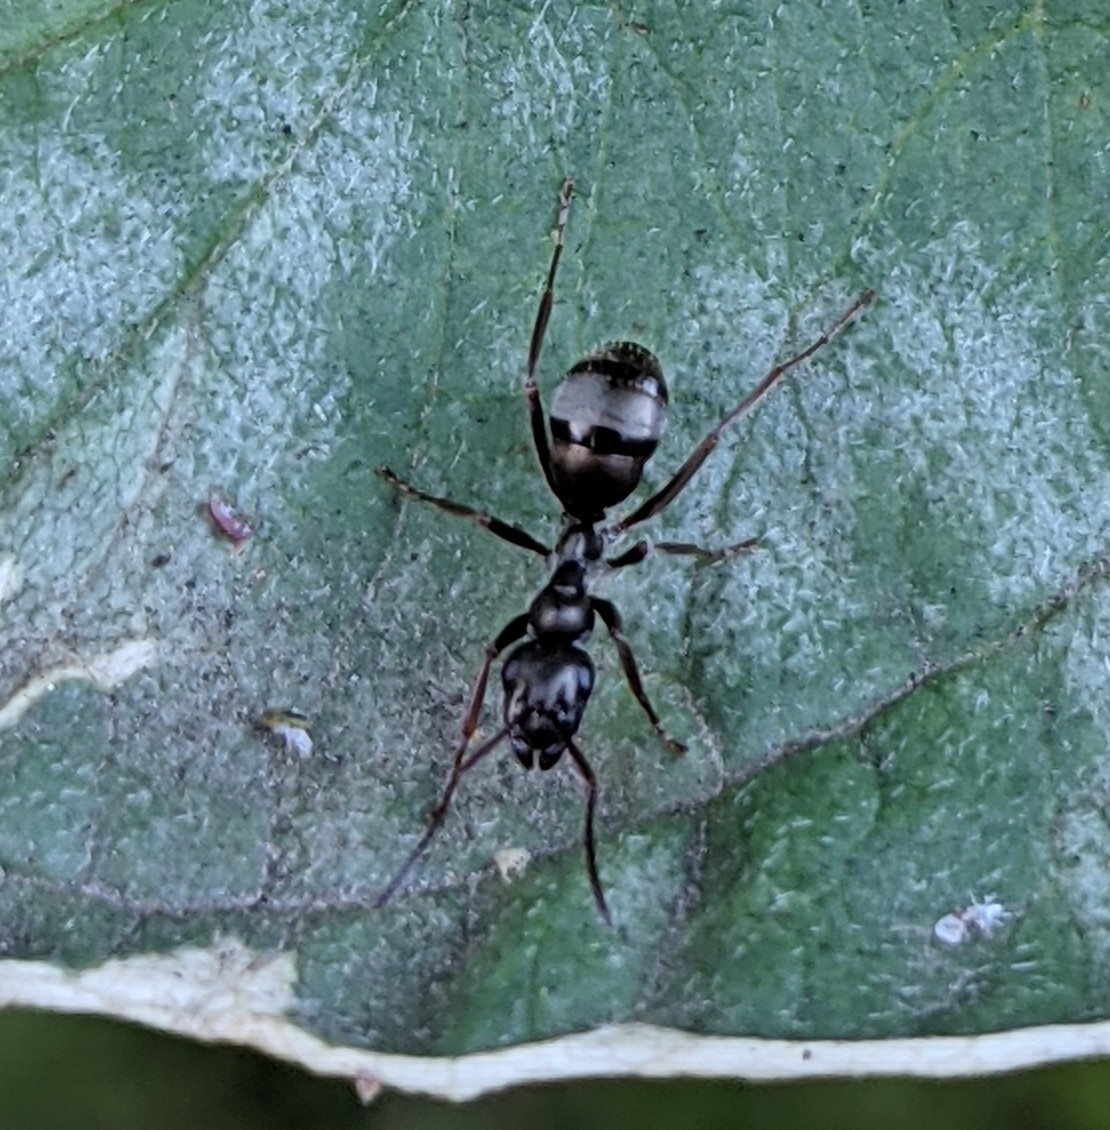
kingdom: Animalia
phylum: Arthropoda
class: Insecta
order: Hymenoptera
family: Formicidae
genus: Formica
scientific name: Formica fusca
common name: Silky ant
